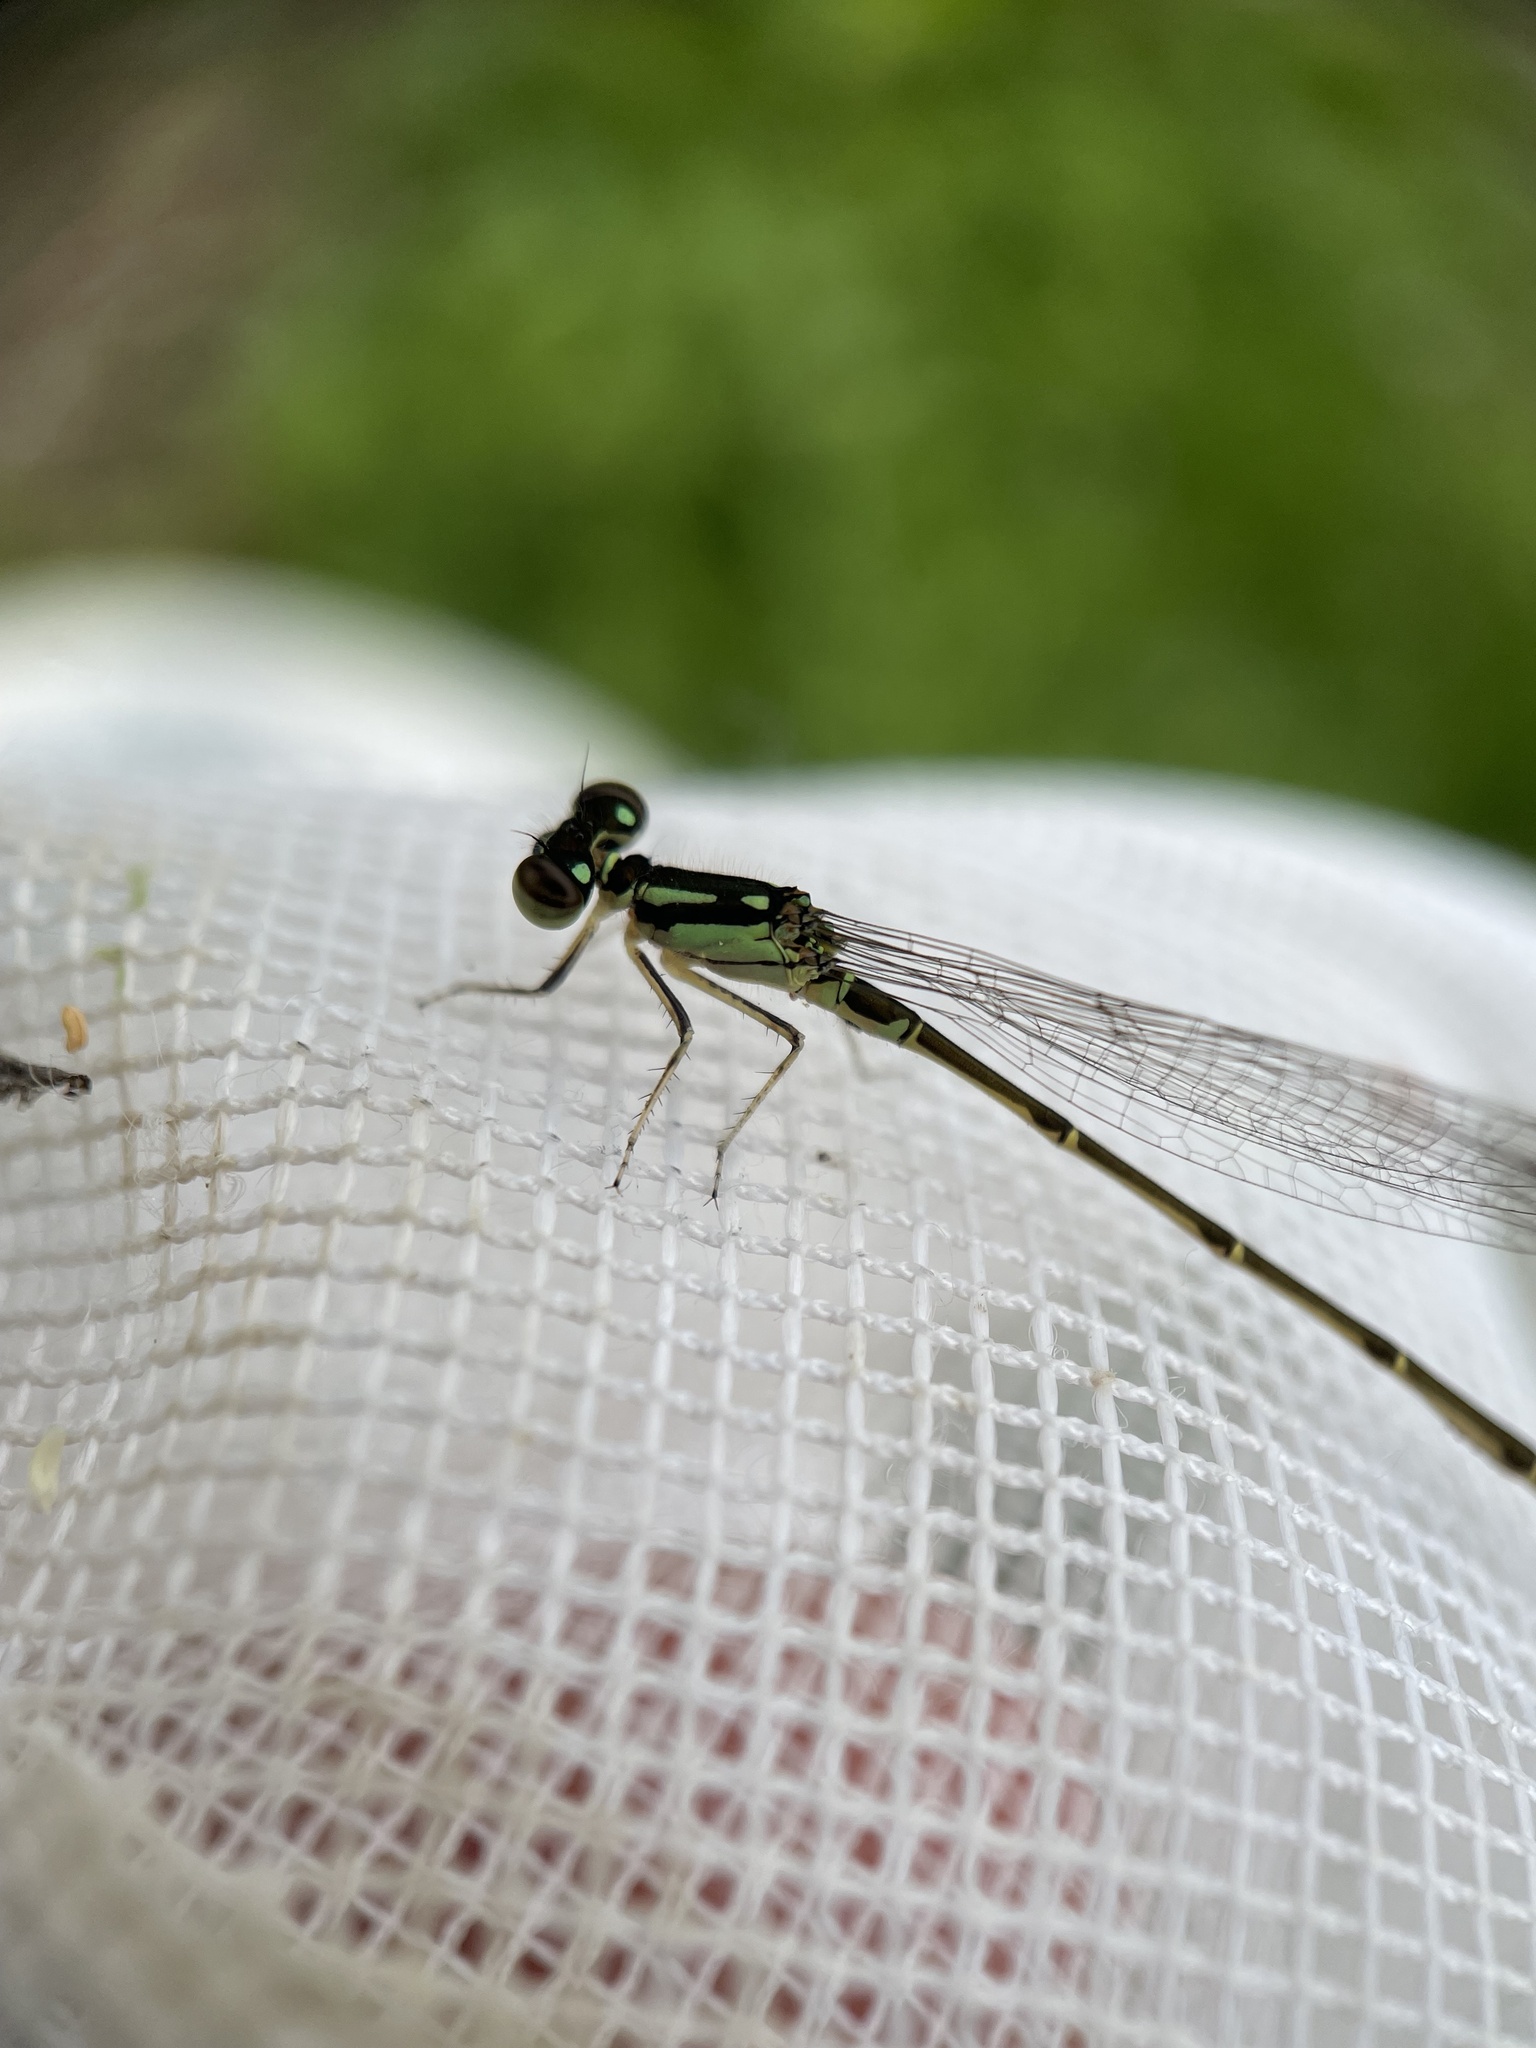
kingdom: Animalia
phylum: Arthropoda
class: Insecta
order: Odonata
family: Coenagrionidae
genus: Ischnura
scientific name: Ischnura posita
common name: Fragile forktail
